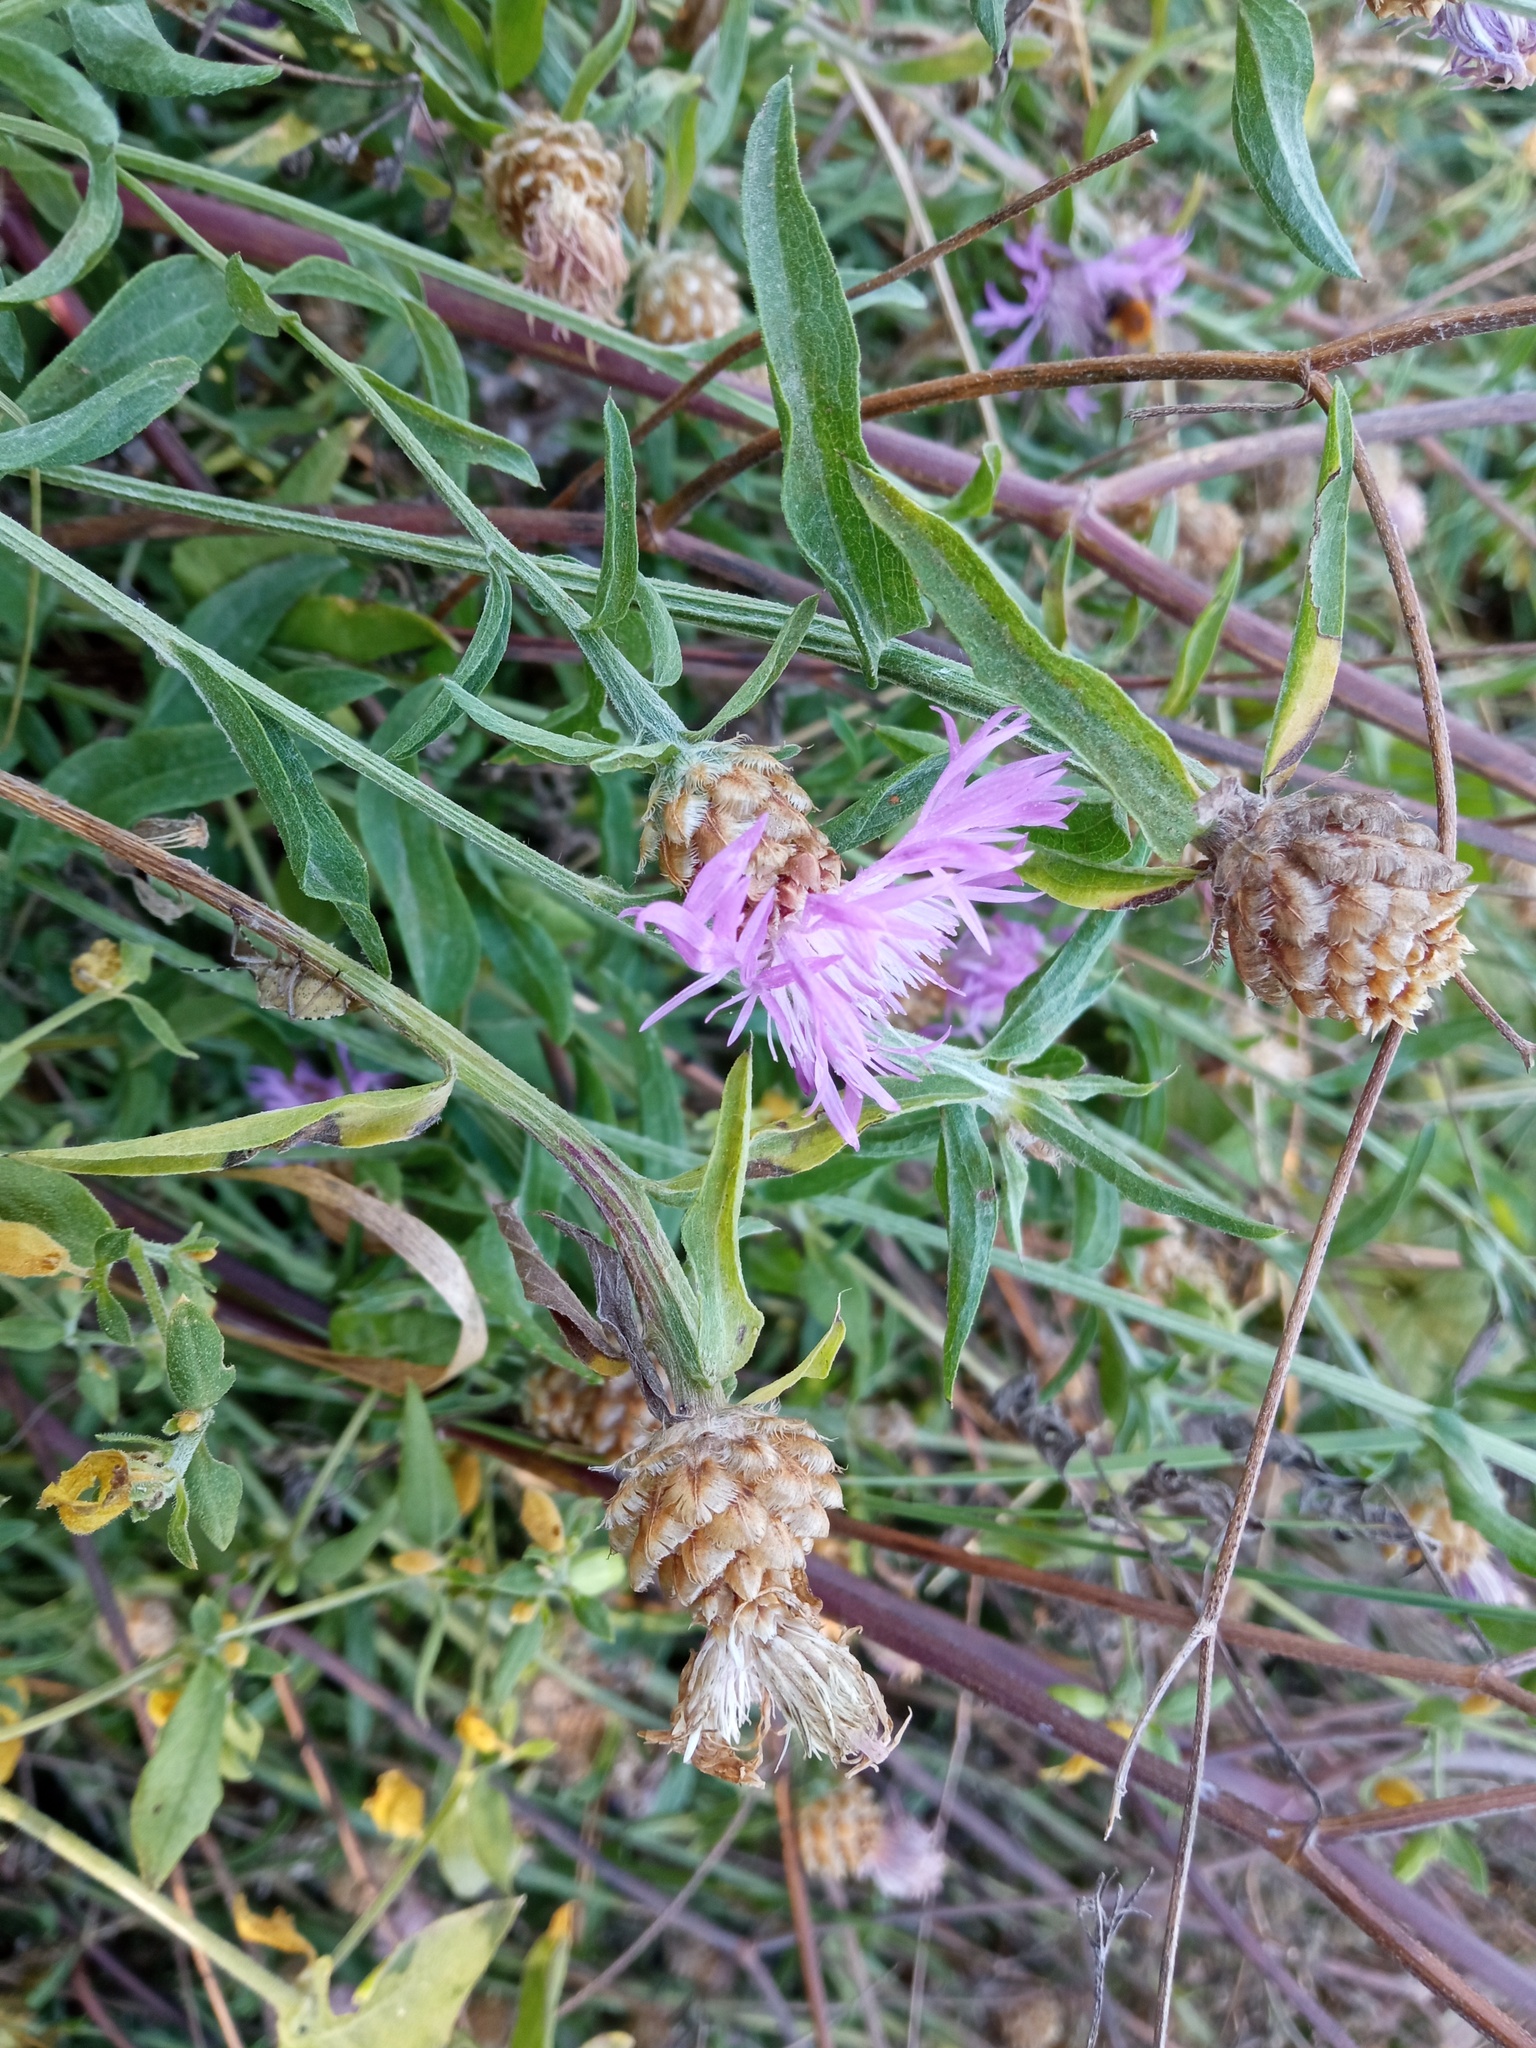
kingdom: Plantae
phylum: Tracheophyta
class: Magnoliopsida
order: Asterales
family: Asteraceae
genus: Centaurea
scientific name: Centaurea jacea
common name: Brown knapweed
